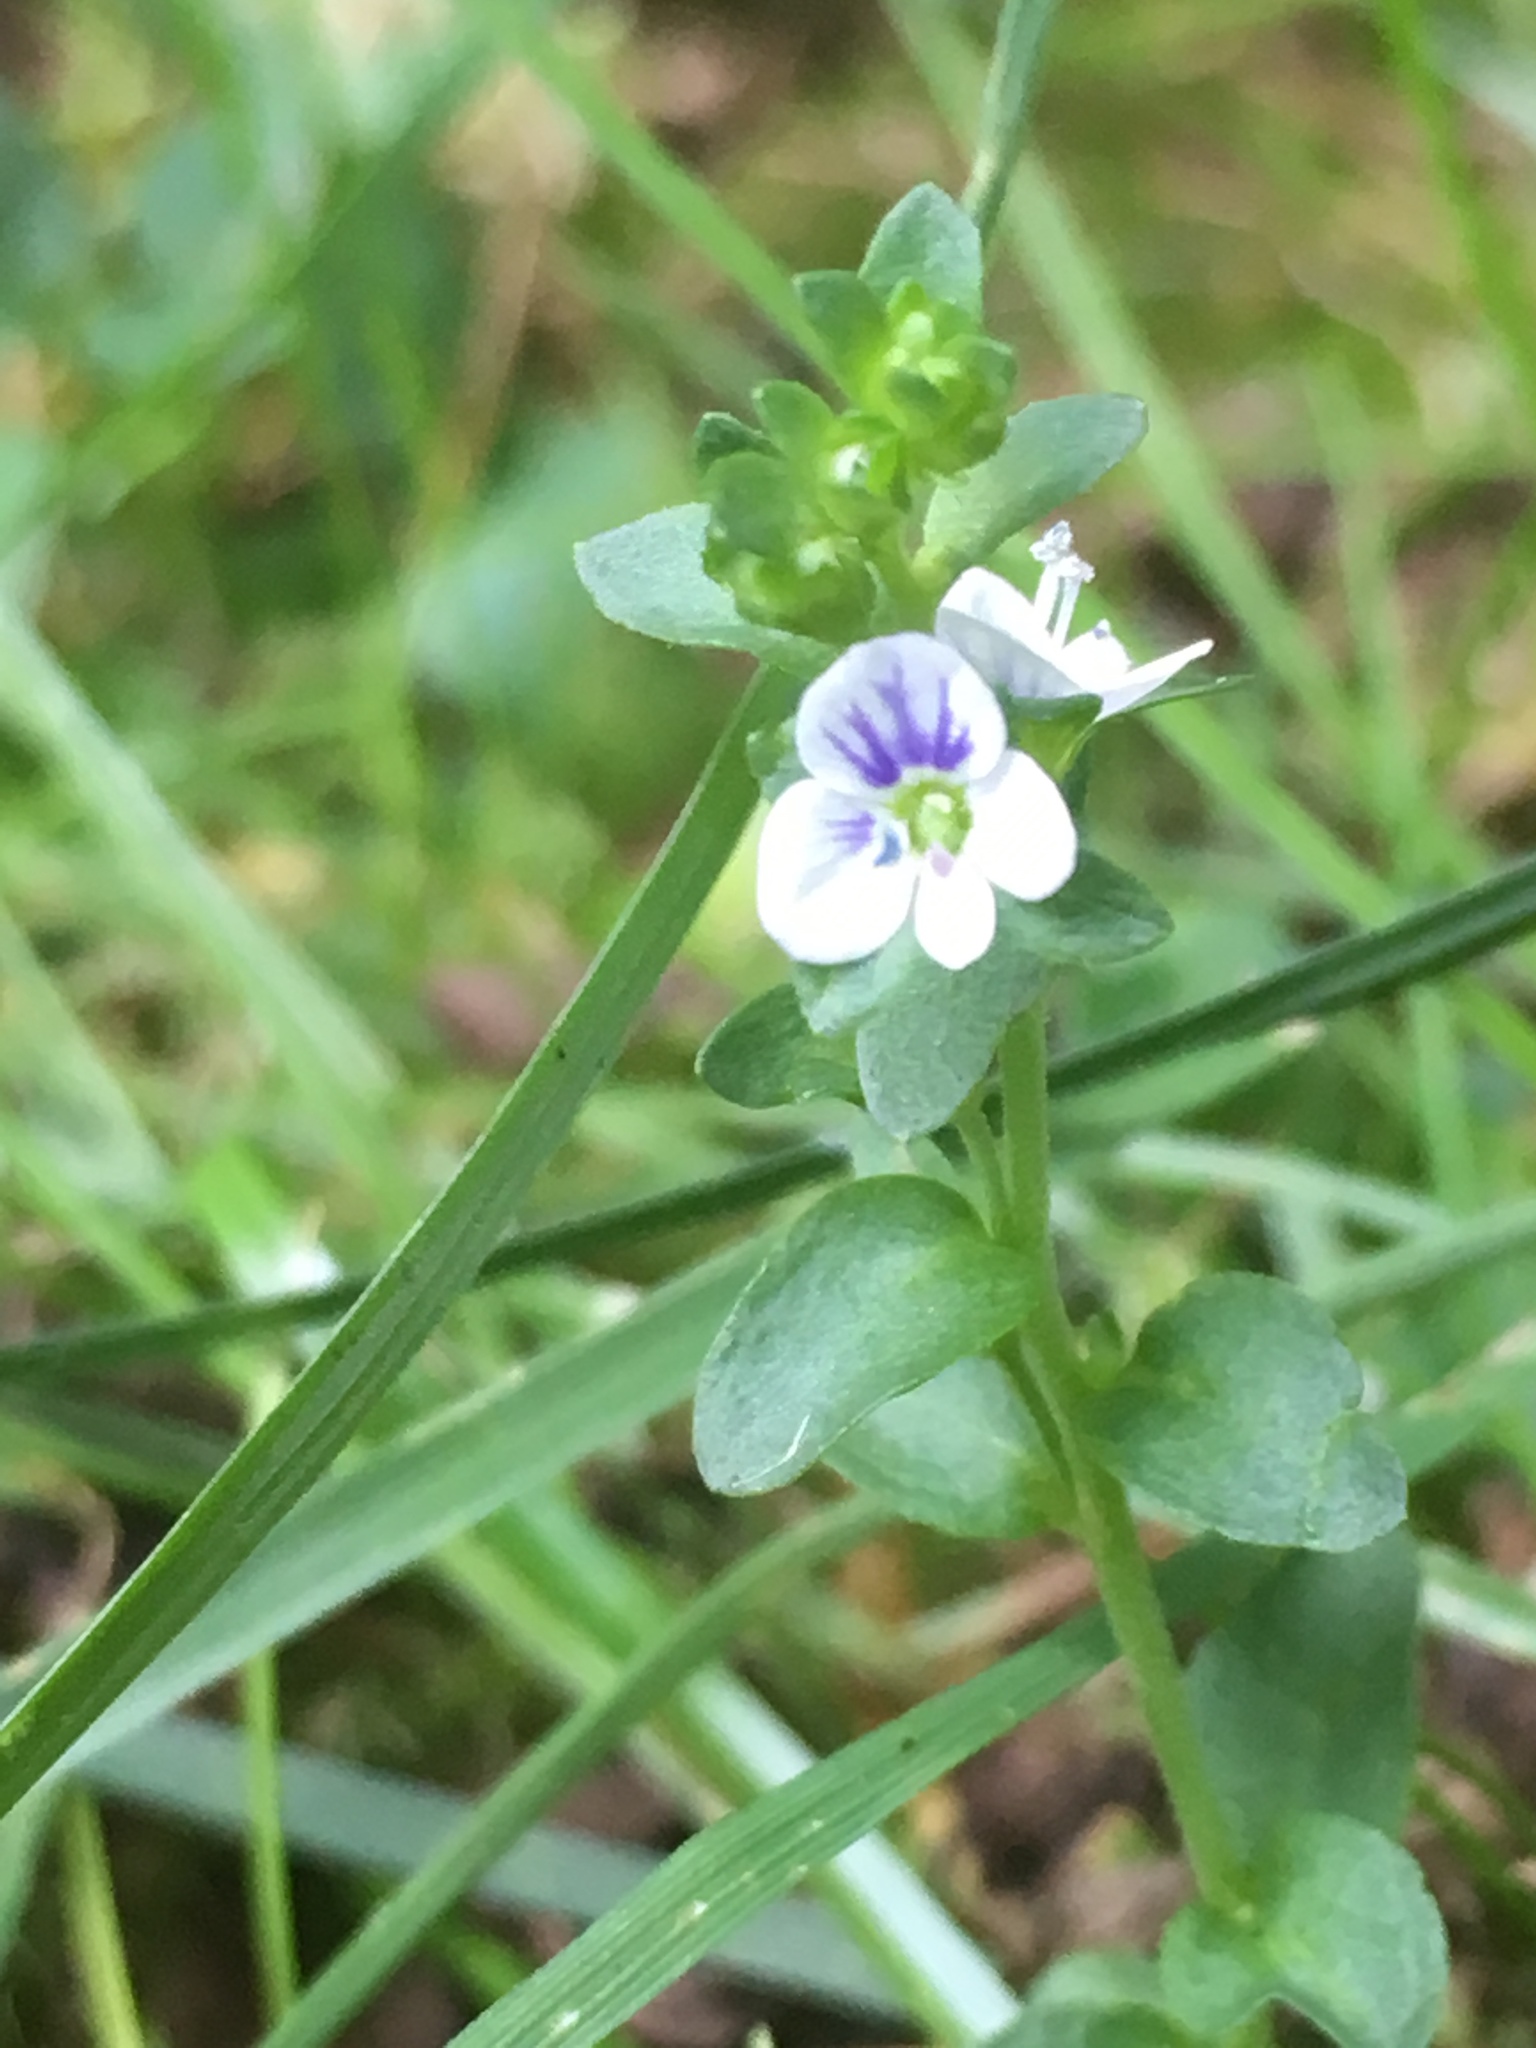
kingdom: Plantae
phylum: Tracheophyta
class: Magnoliopsida
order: Lamiales
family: Plantaginaceae
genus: Veronica
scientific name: Veronica serpyllifolia
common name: Thyme-leaved speedwell
